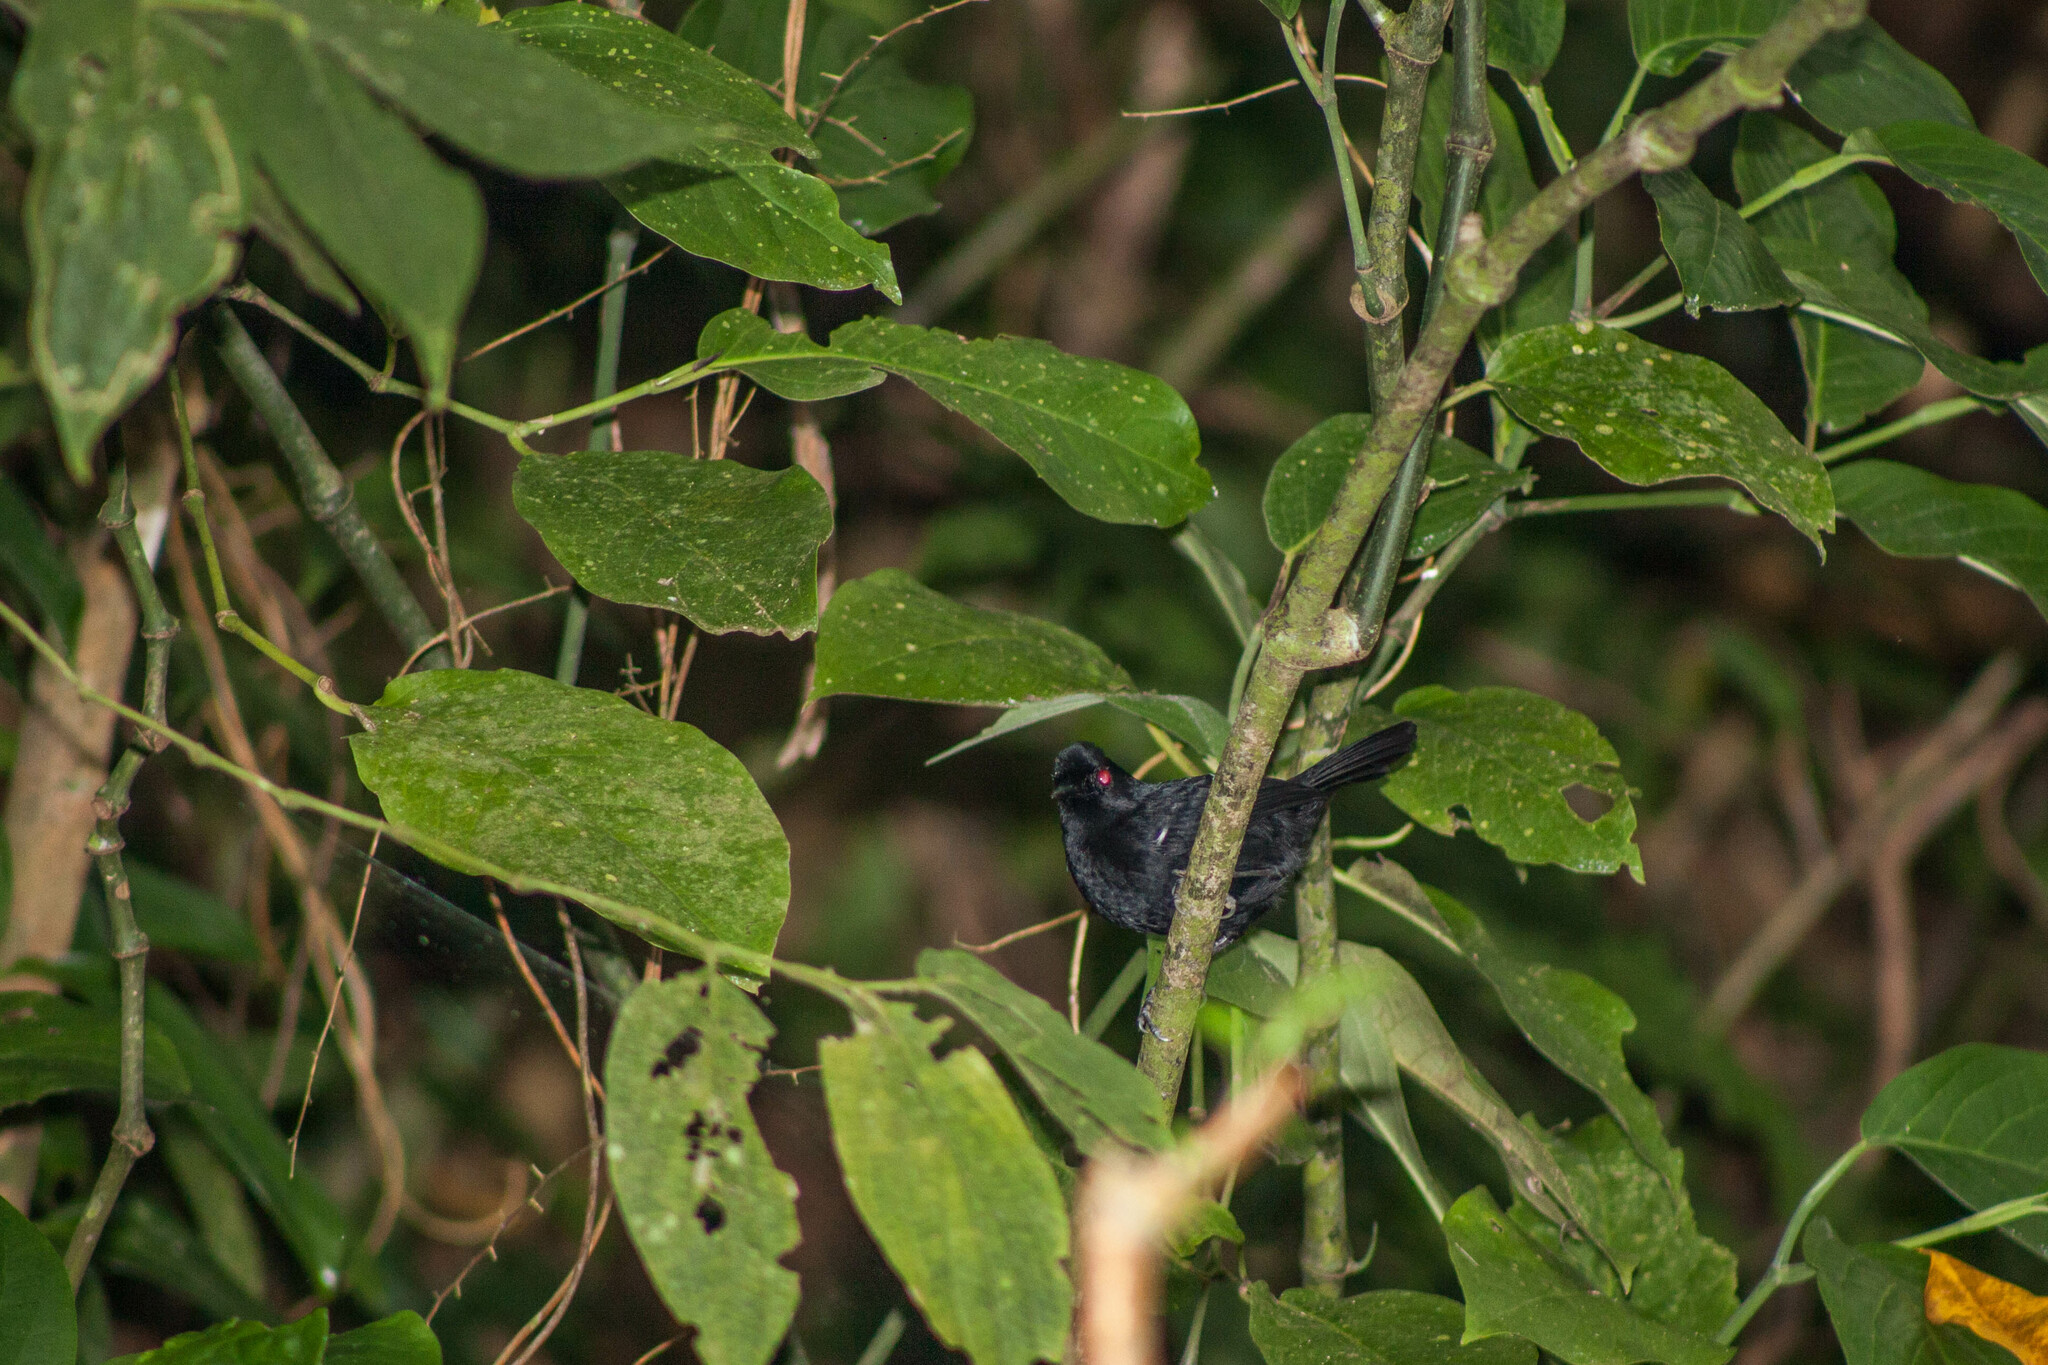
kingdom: Animalia
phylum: Chordata
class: Aves
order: Passeriformes
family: Thamnophilidae
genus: Pyriglena
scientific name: Pyriglena leucoptera
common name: White-shouldered fire-eye
